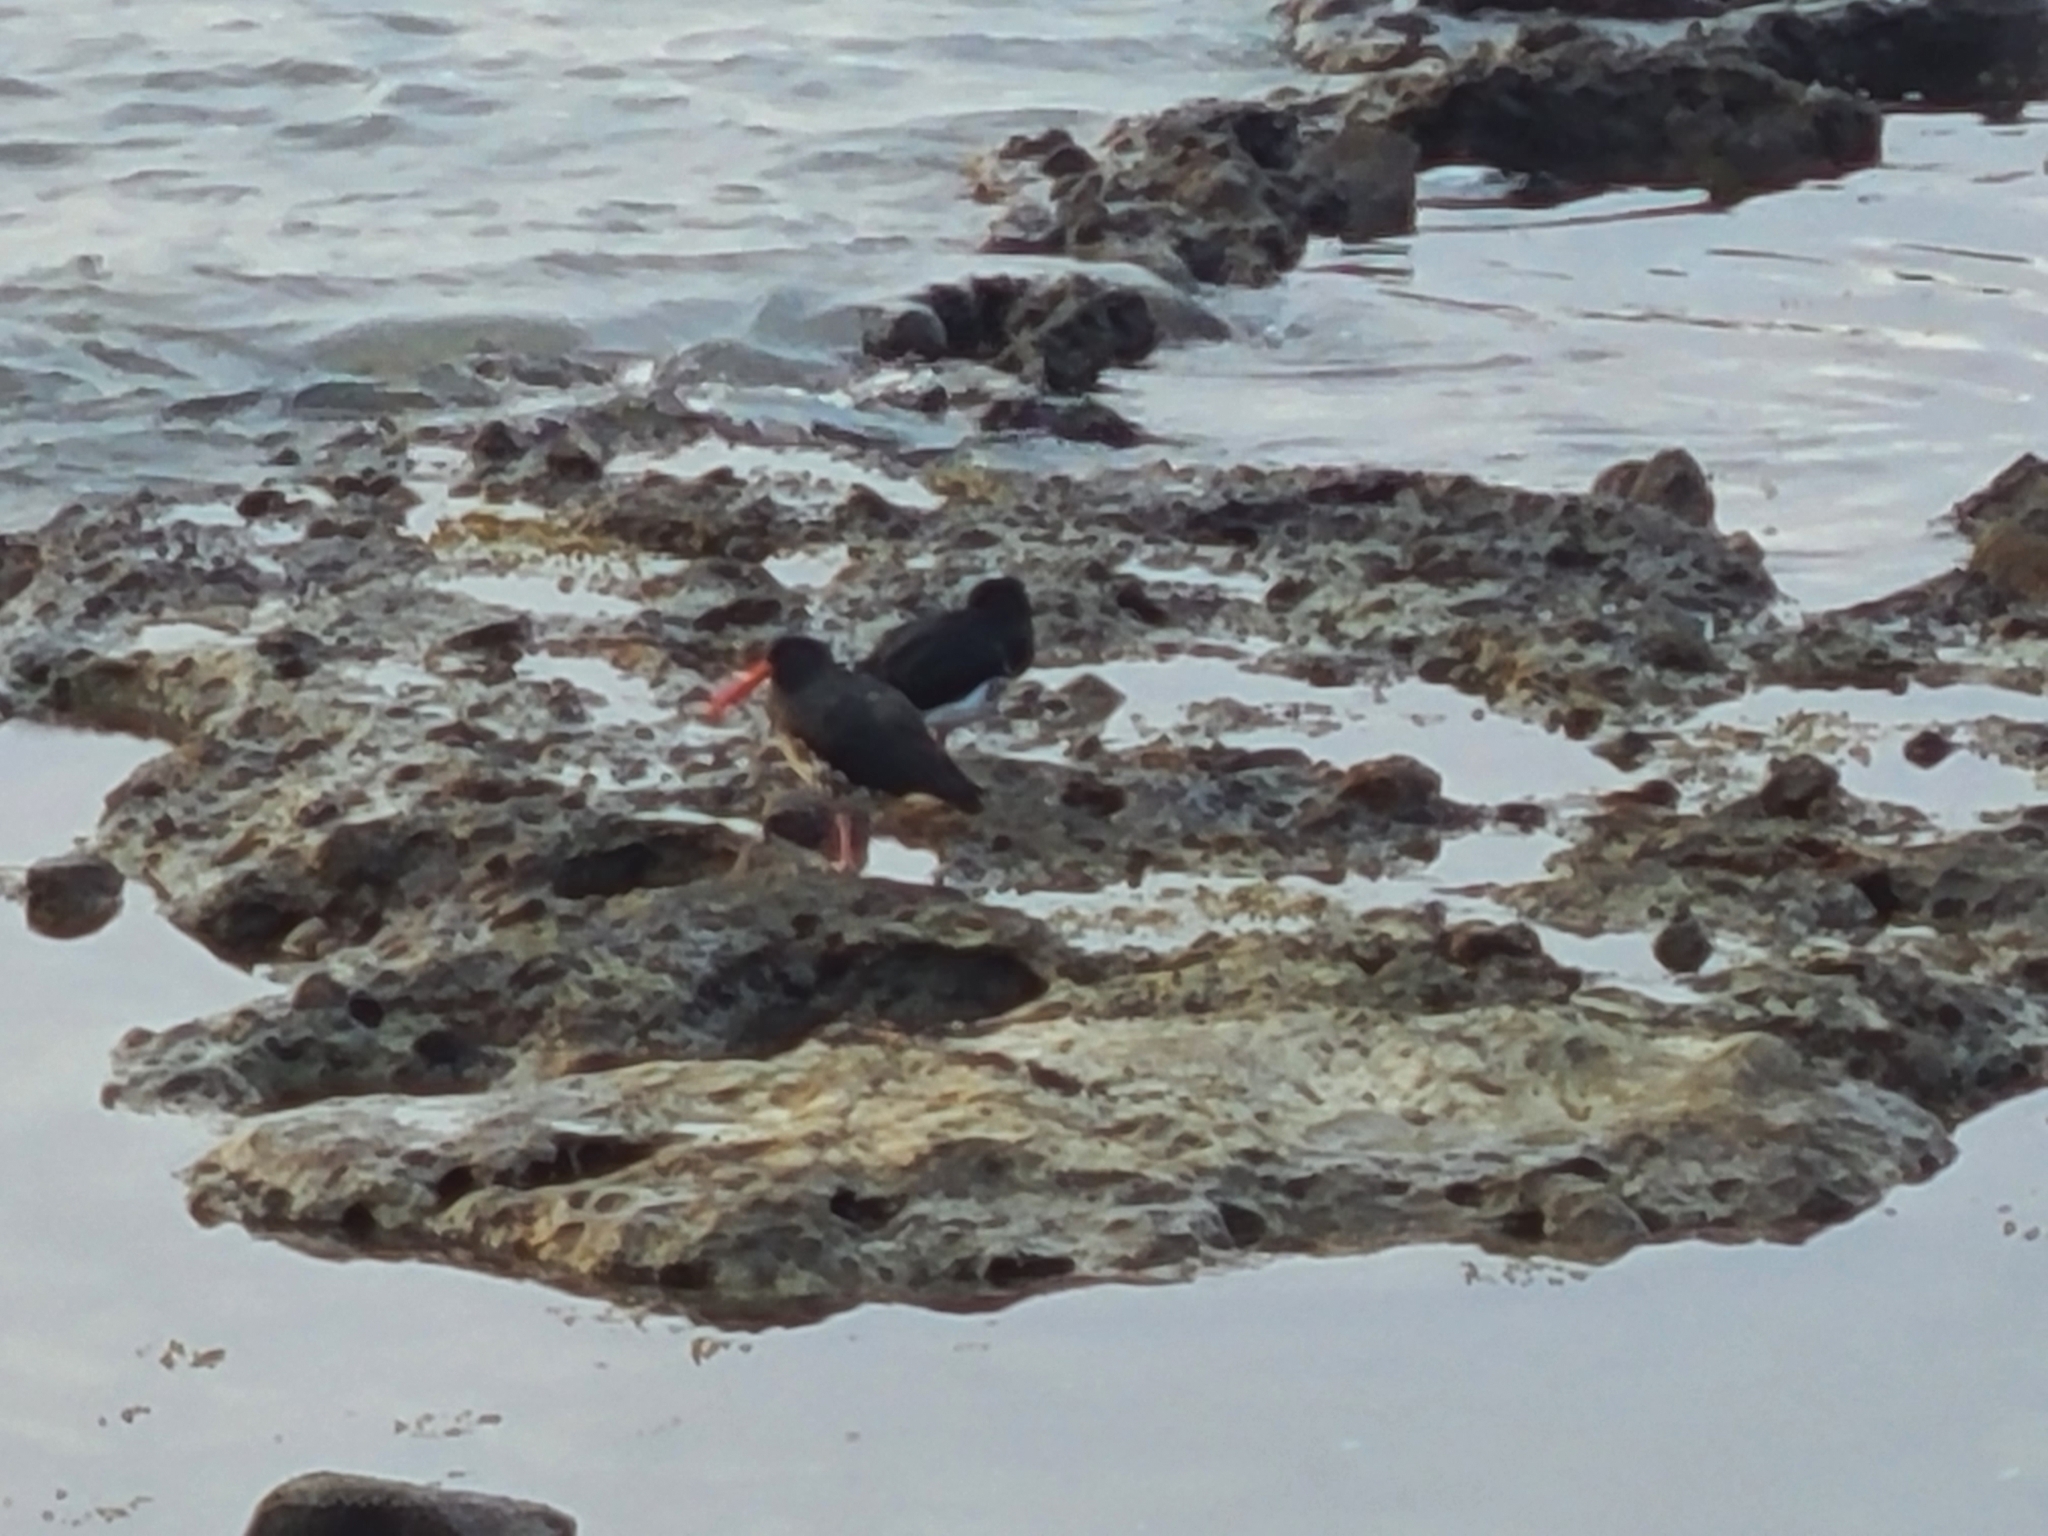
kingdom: Animalia
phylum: Chordata
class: Aves
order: Charadriiformes
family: Haematopodidae
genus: Haematopus
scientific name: Haematopus unicolor
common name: Variable oystercatcher
